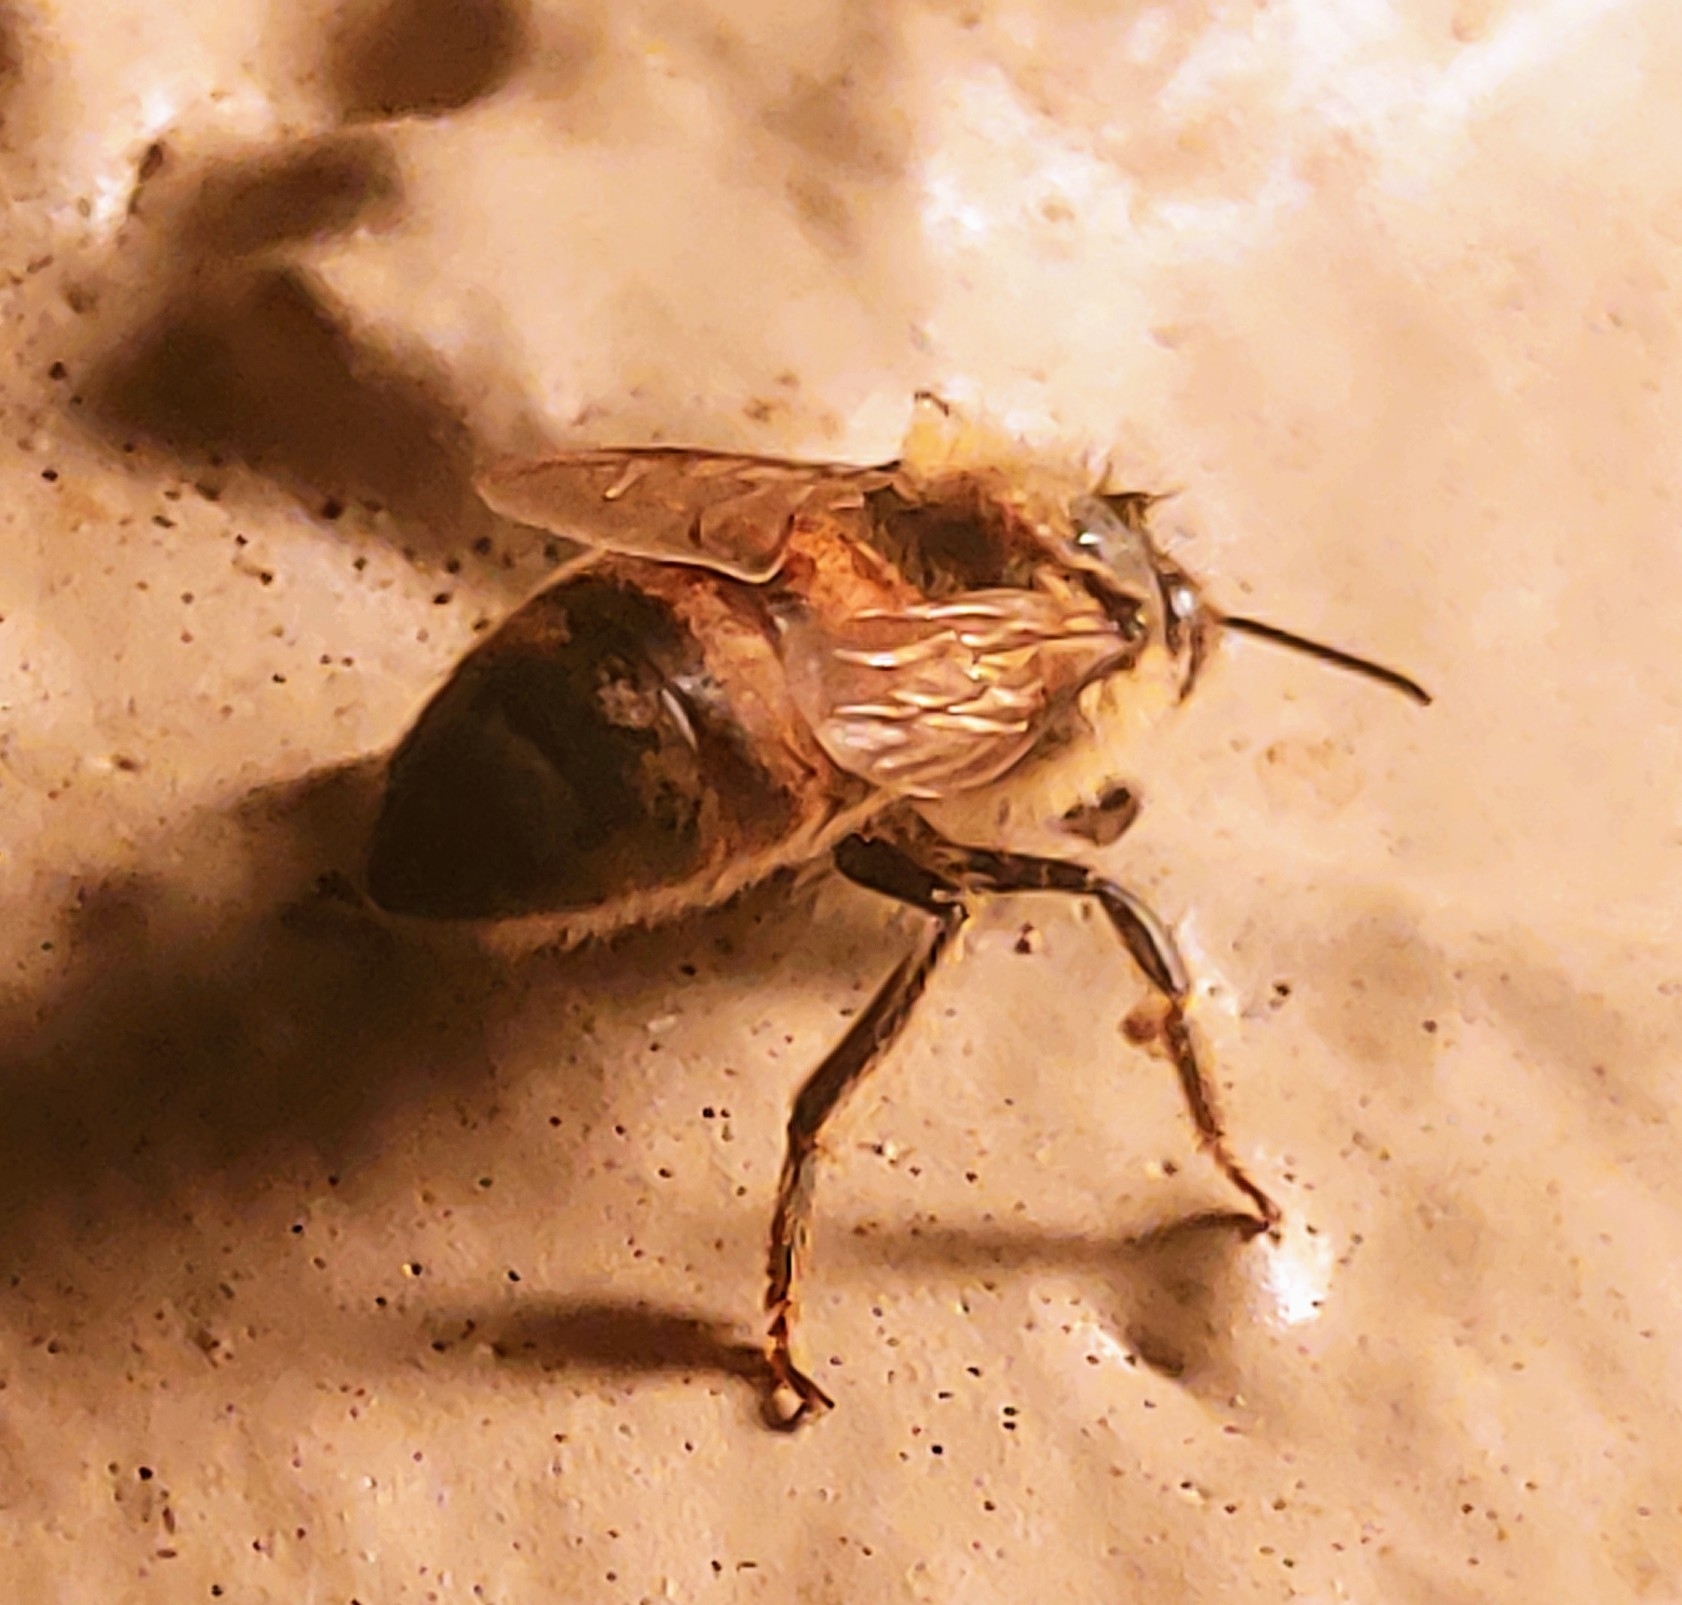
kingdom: Animalia
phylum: Arthropoda
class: Insecta
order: Hymenoptera
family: Apidae
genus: Apis
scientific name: Apis mellifera
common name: Honey bee
